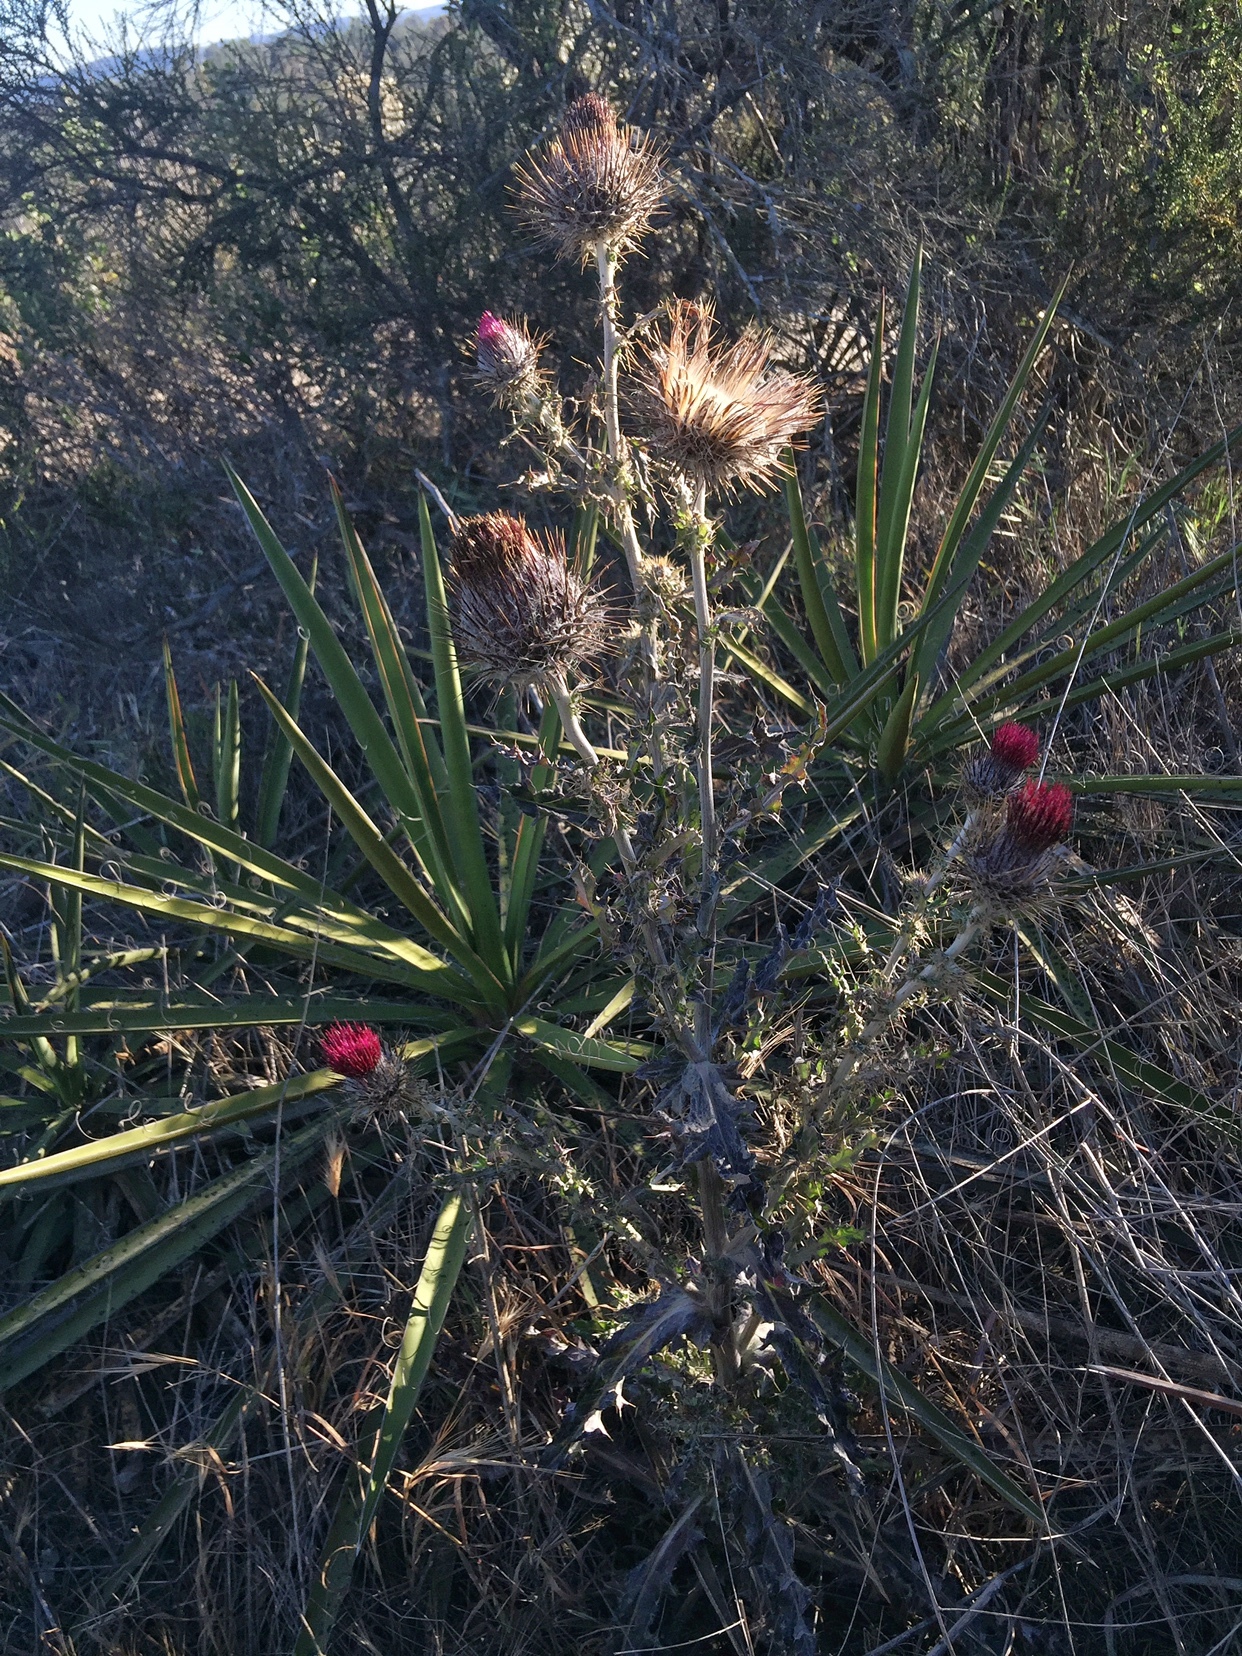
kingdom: Plantae
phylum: Tracheophyta
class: Magnoliopsida
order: Asterales
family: Asteraceae
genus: Cirsium
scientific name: Cirsium occidentale
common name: Western thistle
